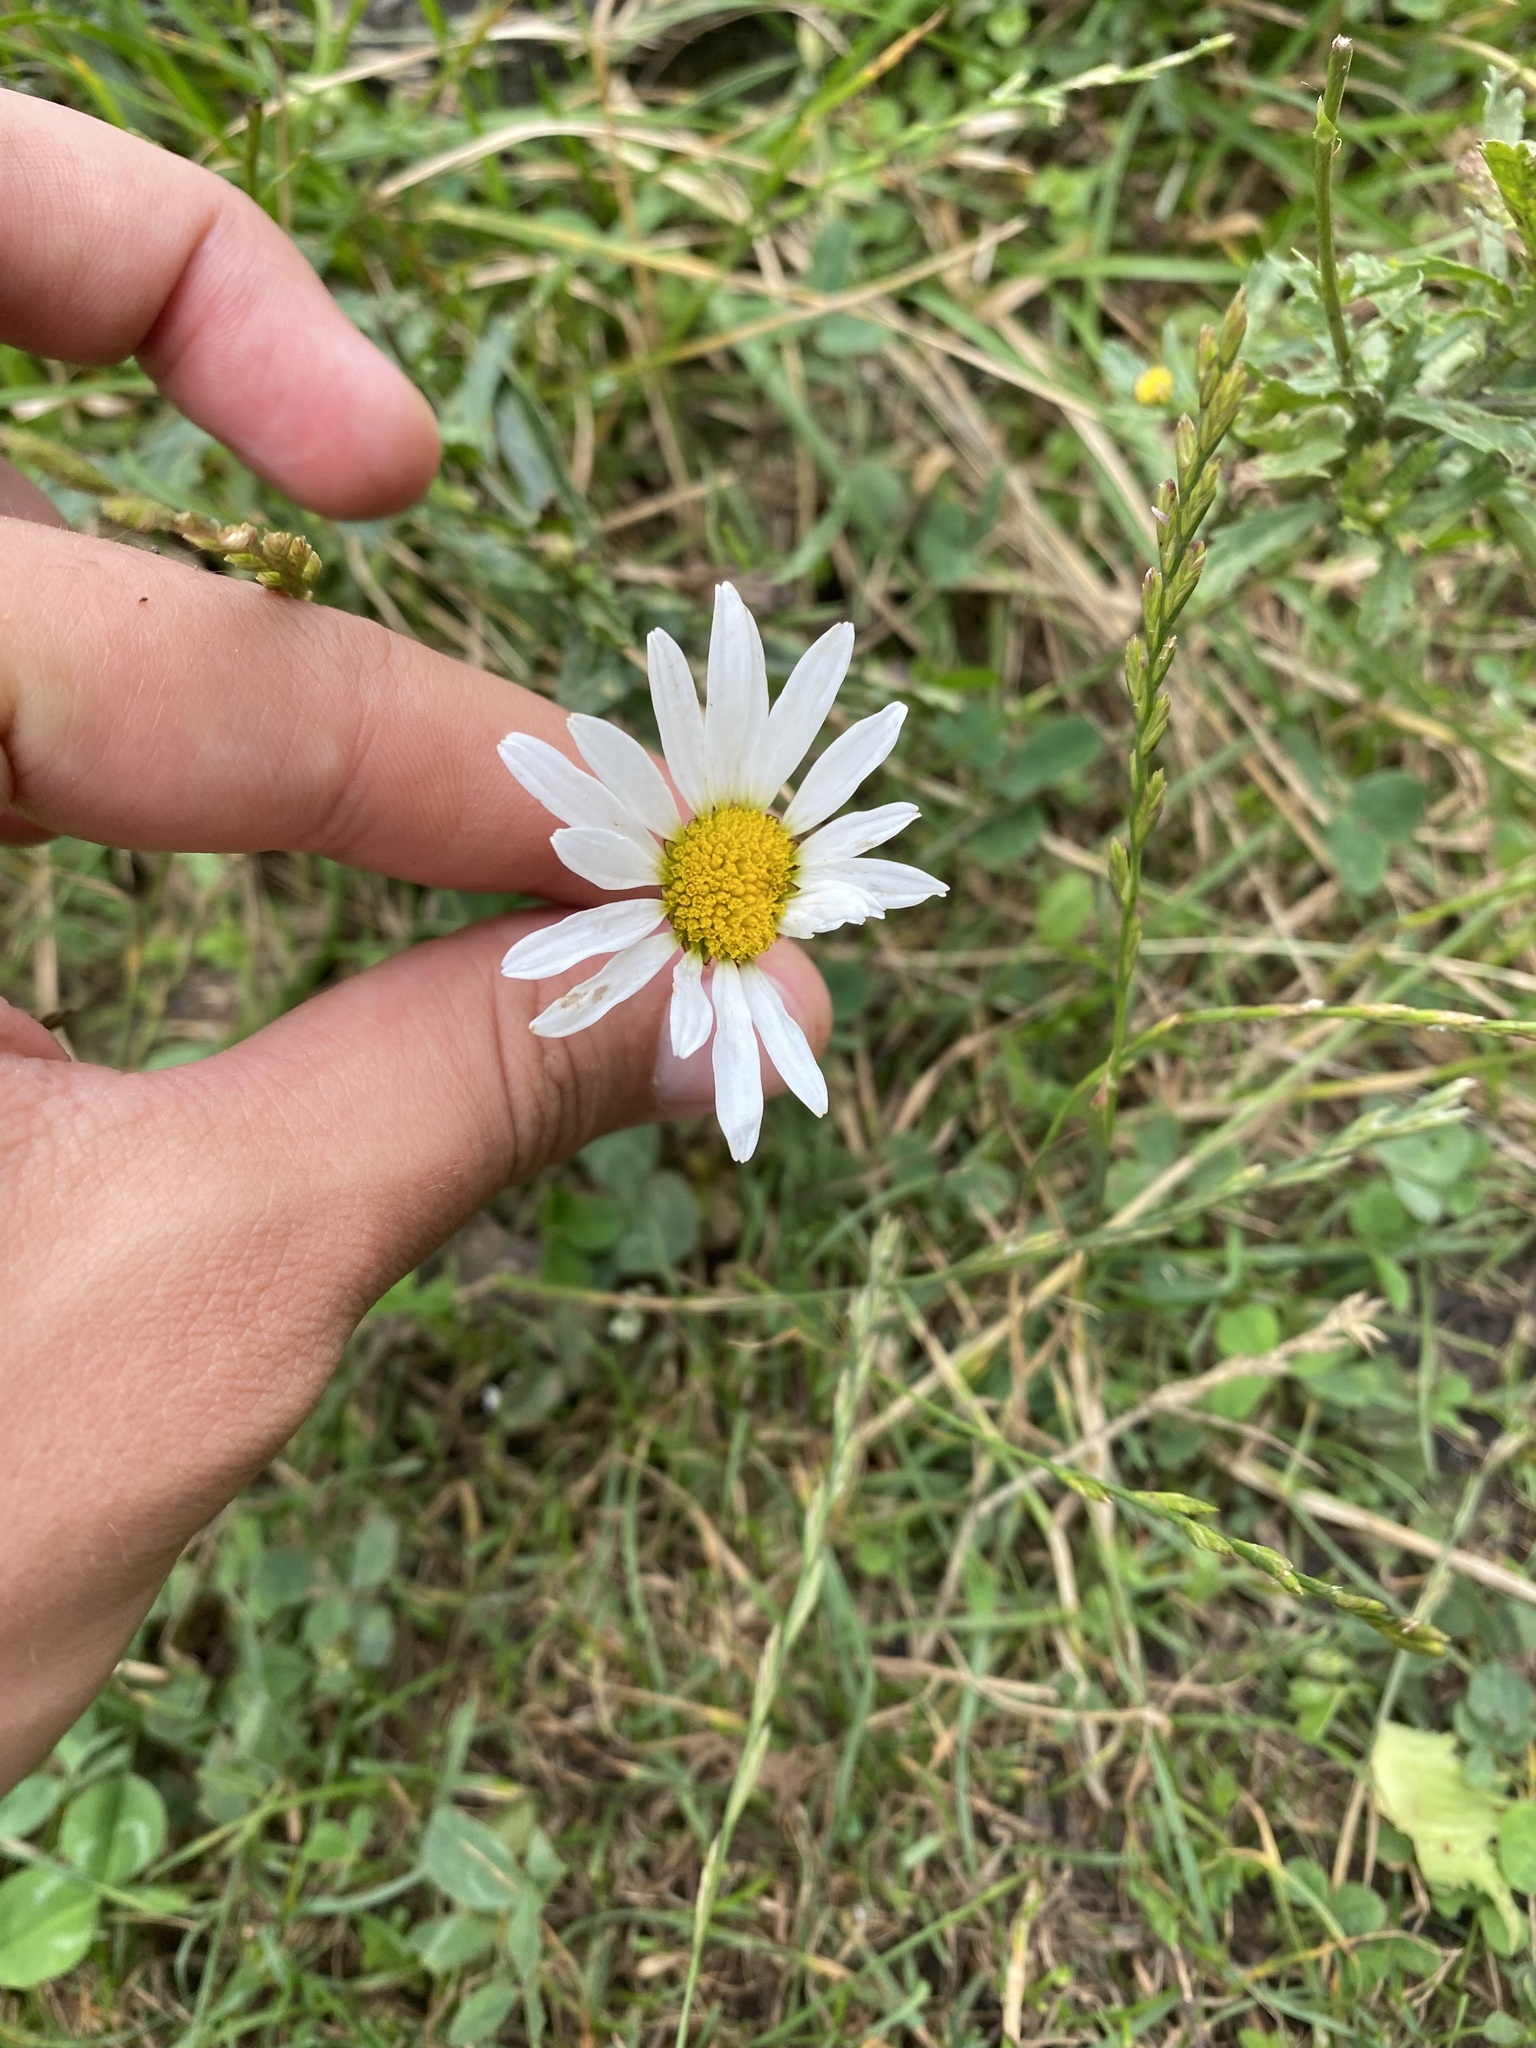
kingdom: Plantae
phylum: Tracheophyta
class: Magnoliopsida
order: Asterales
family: Asteraceae
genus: Leucanthemum
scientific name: Leucanthemum vulgare
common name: Oxeye daisy
